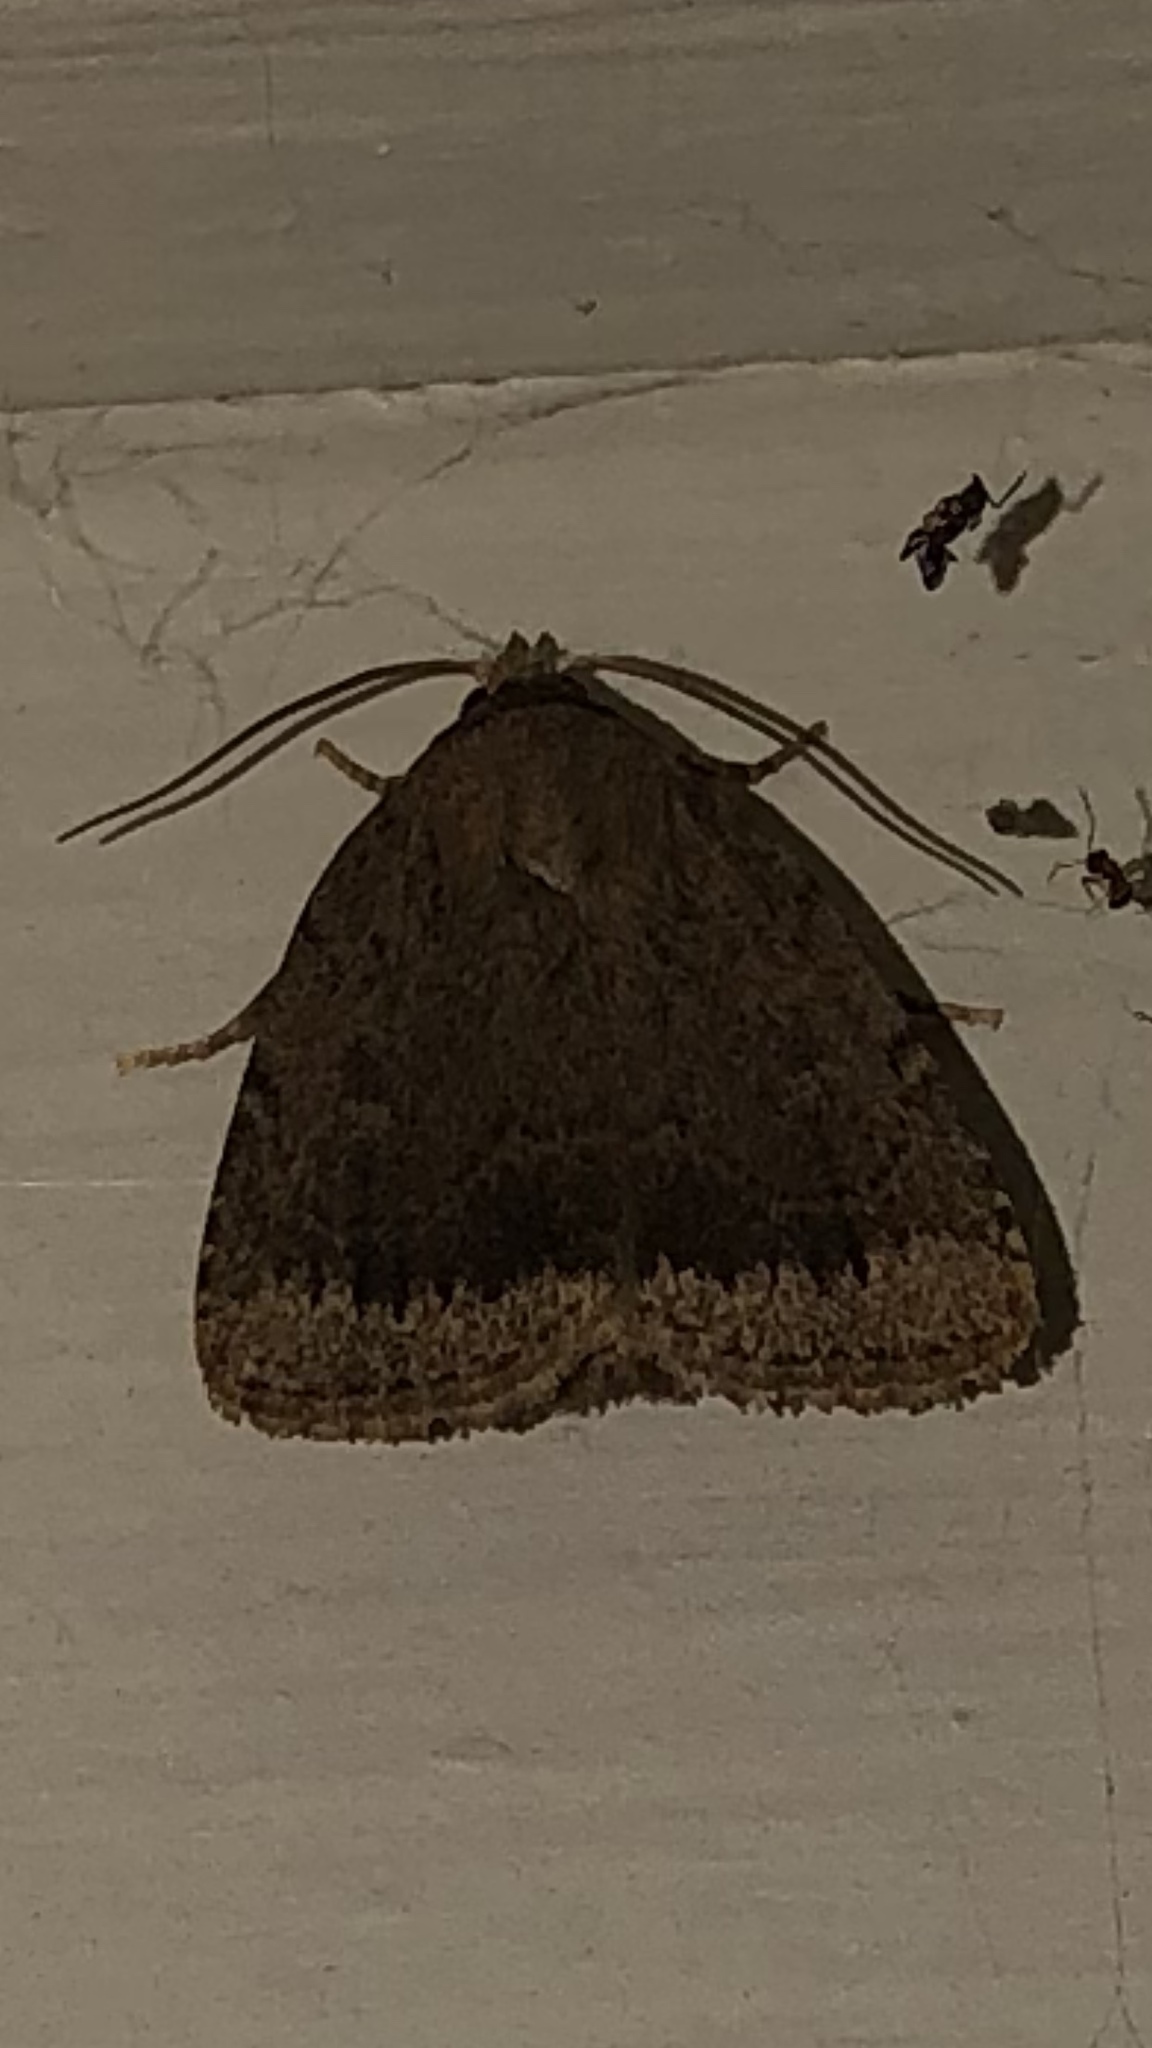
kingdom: Animalia
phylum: Arthropoda
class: Insecta
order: Lepidoptera
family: Noctuidae
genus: Amphipyra
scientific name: Amphipyra glabella
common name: Smooth amphipyra moth
